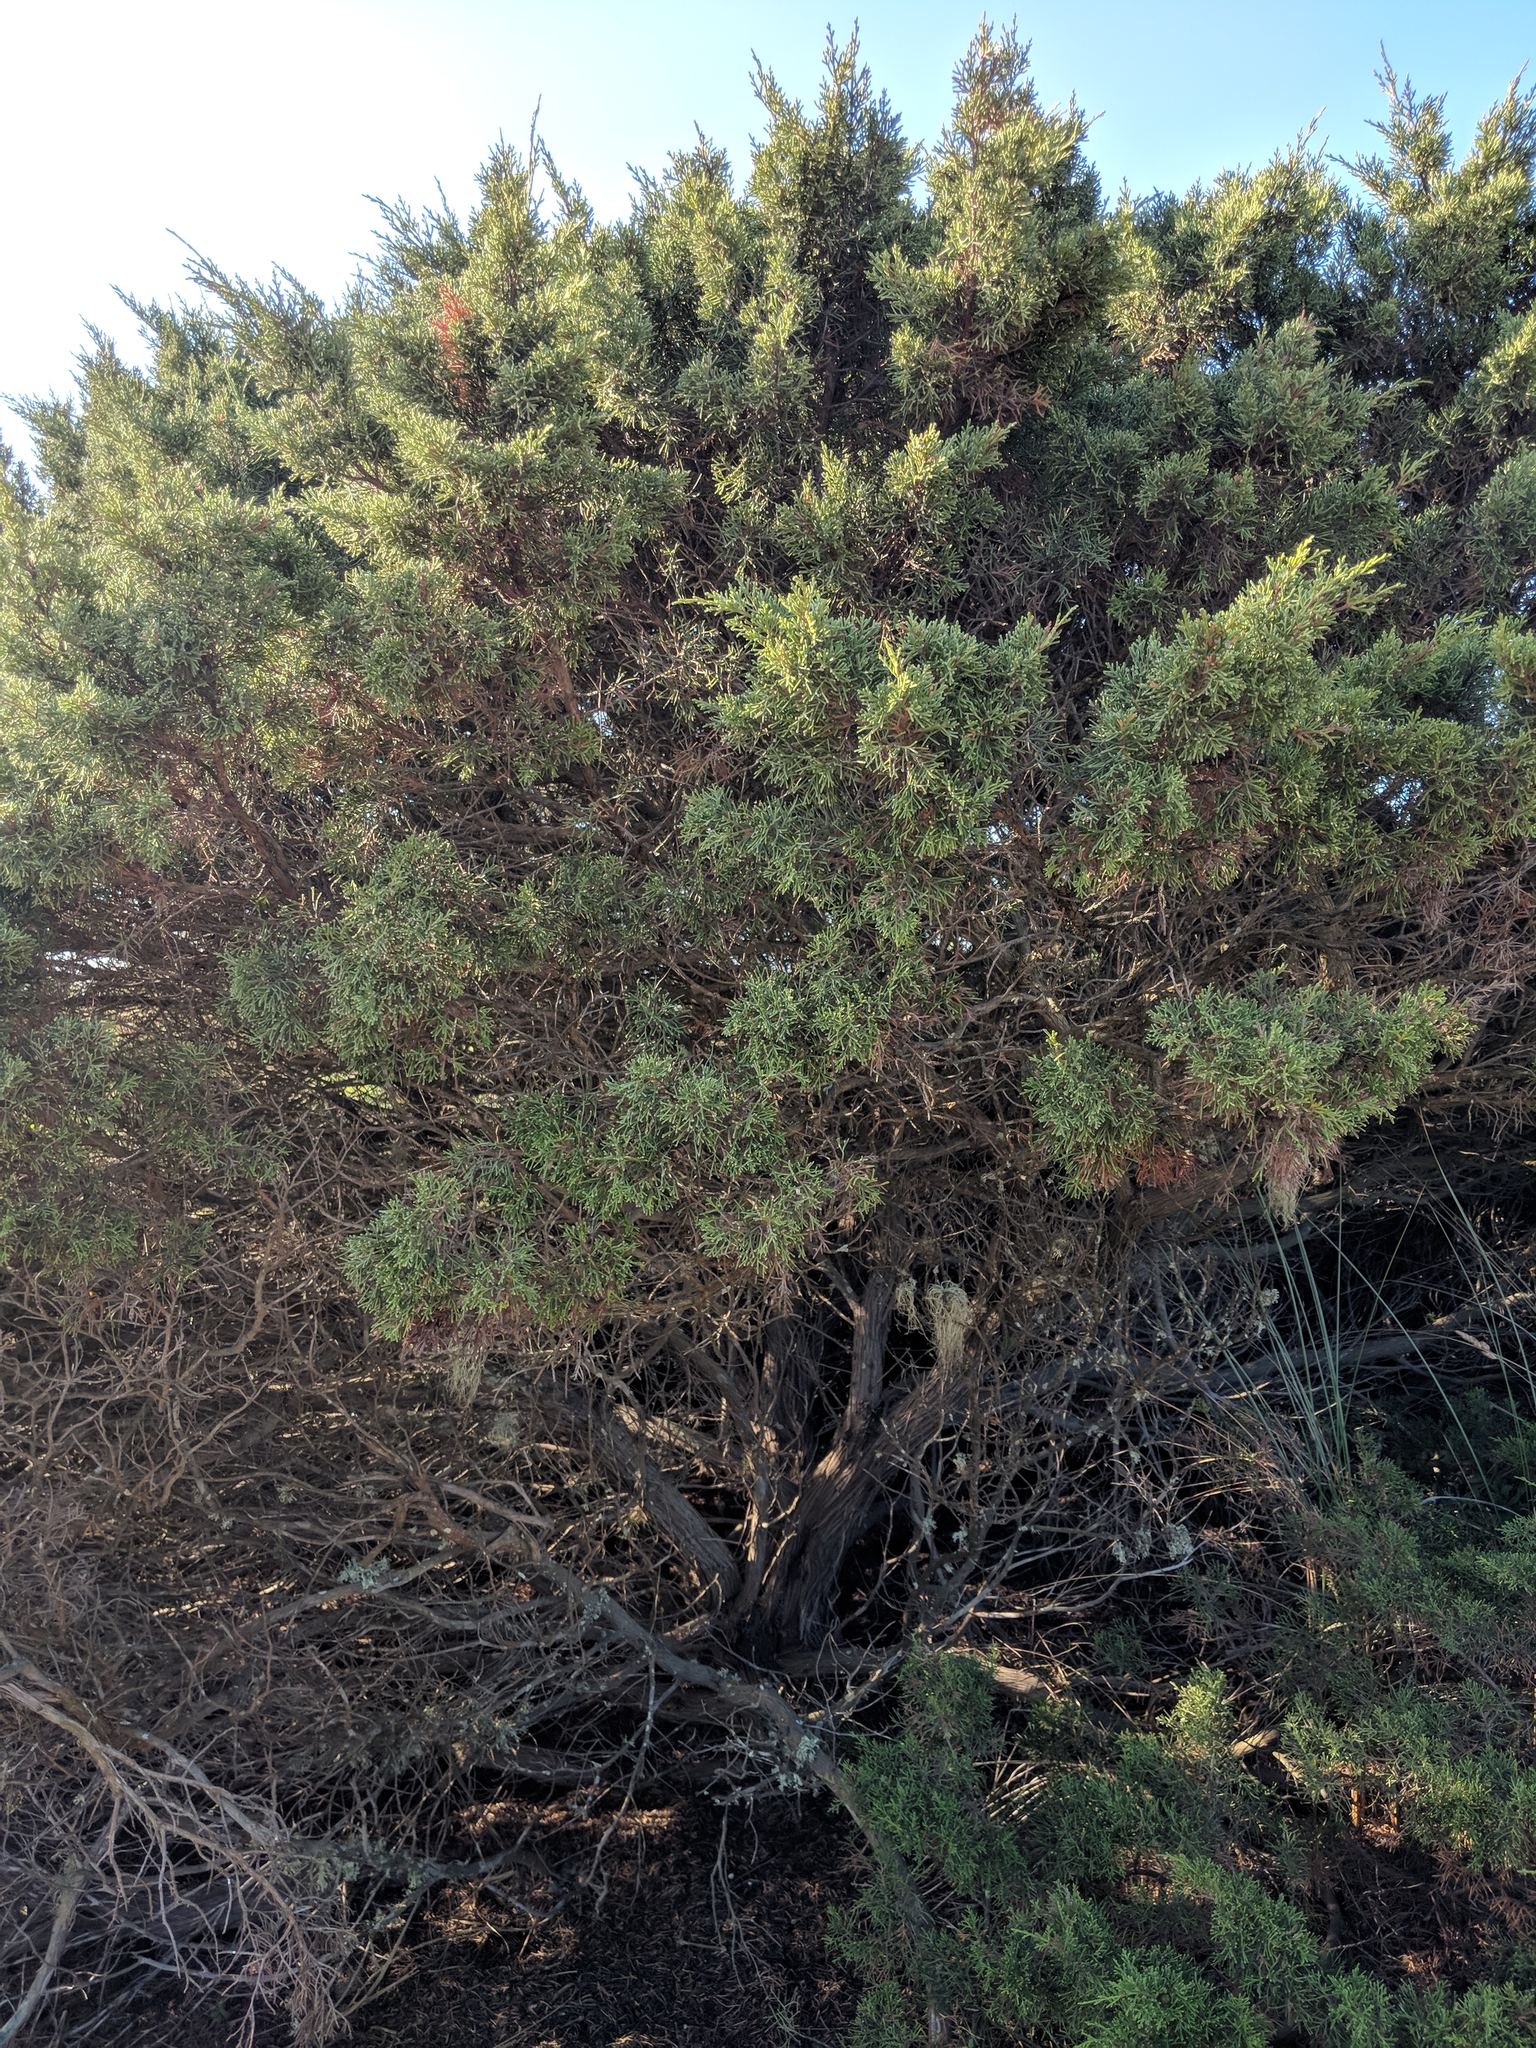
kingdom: Plantae
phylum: Tracheophyta
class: Pinopsida
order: Pinales
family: Cupressaceae
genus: Juniperus
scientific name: Juniperus phoenicea
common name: Phoenician juniper
